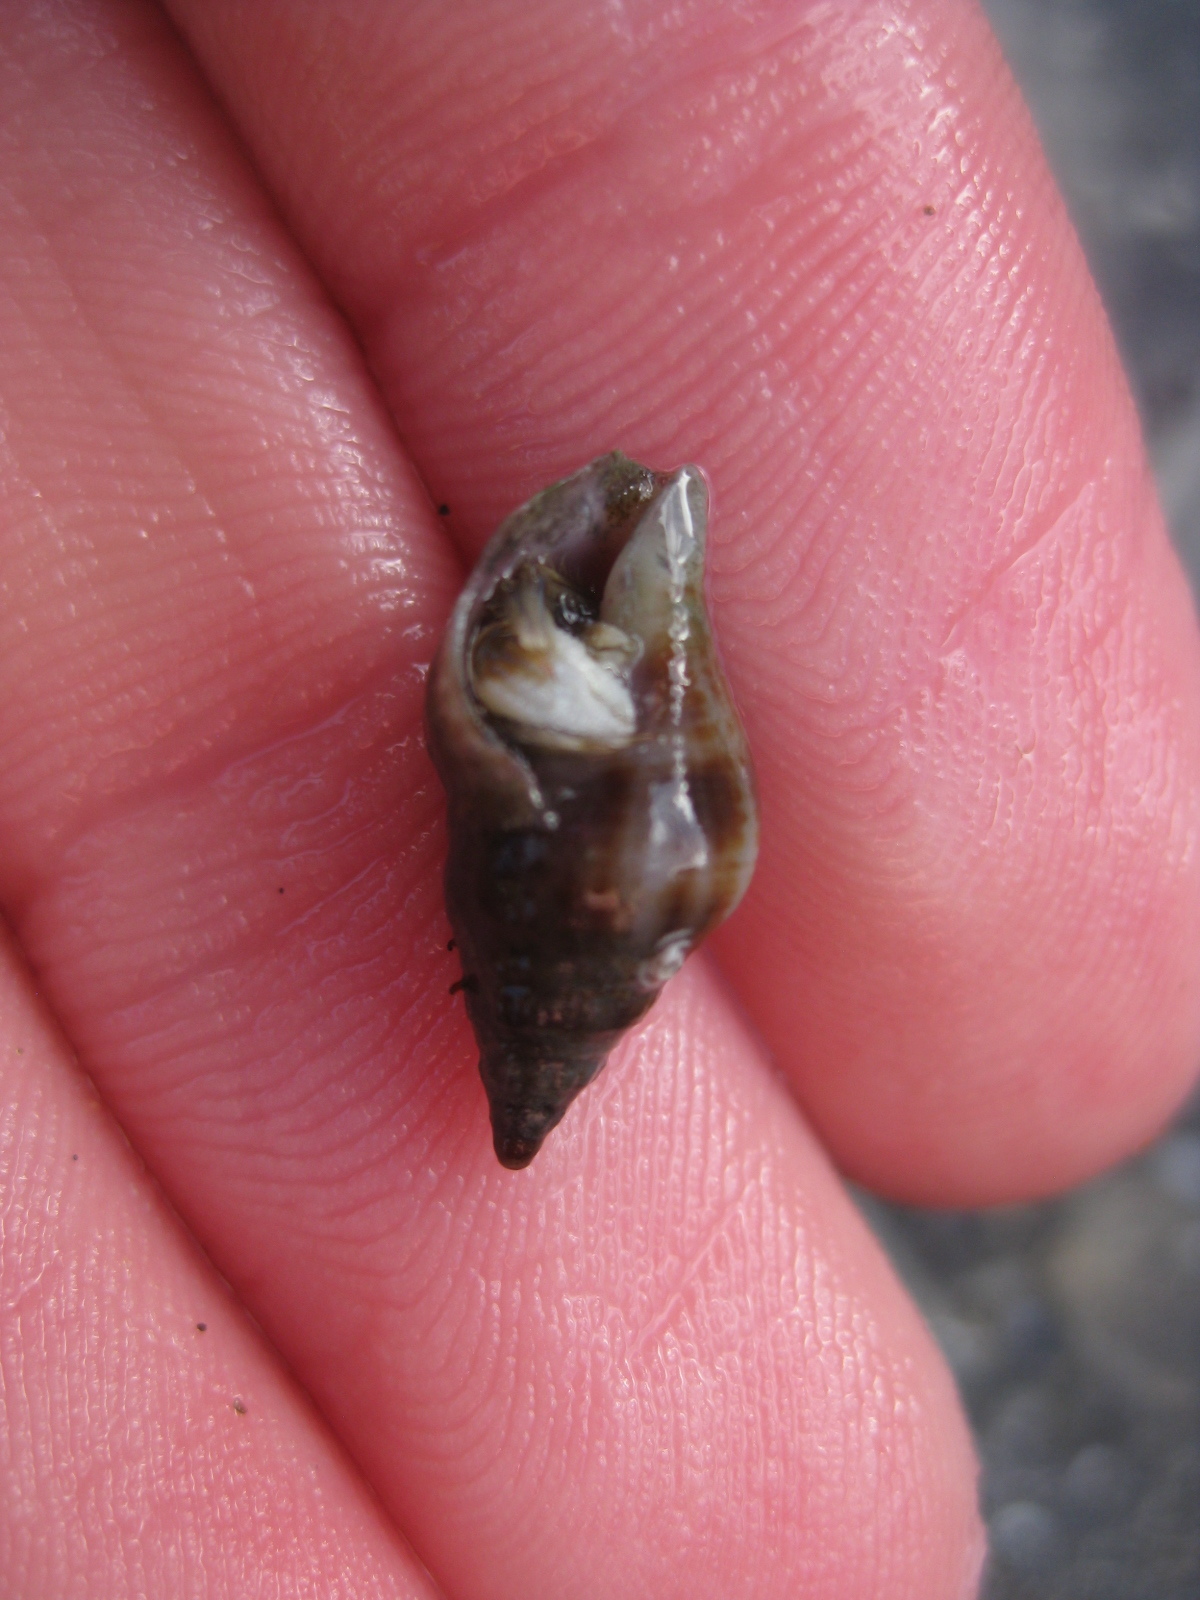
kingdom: Animalia
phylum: Mollusca
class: Gastropoda
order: Neogastropoda
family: Tudiclidae
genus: Buccinulum
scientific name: Buccinulum vittatum
